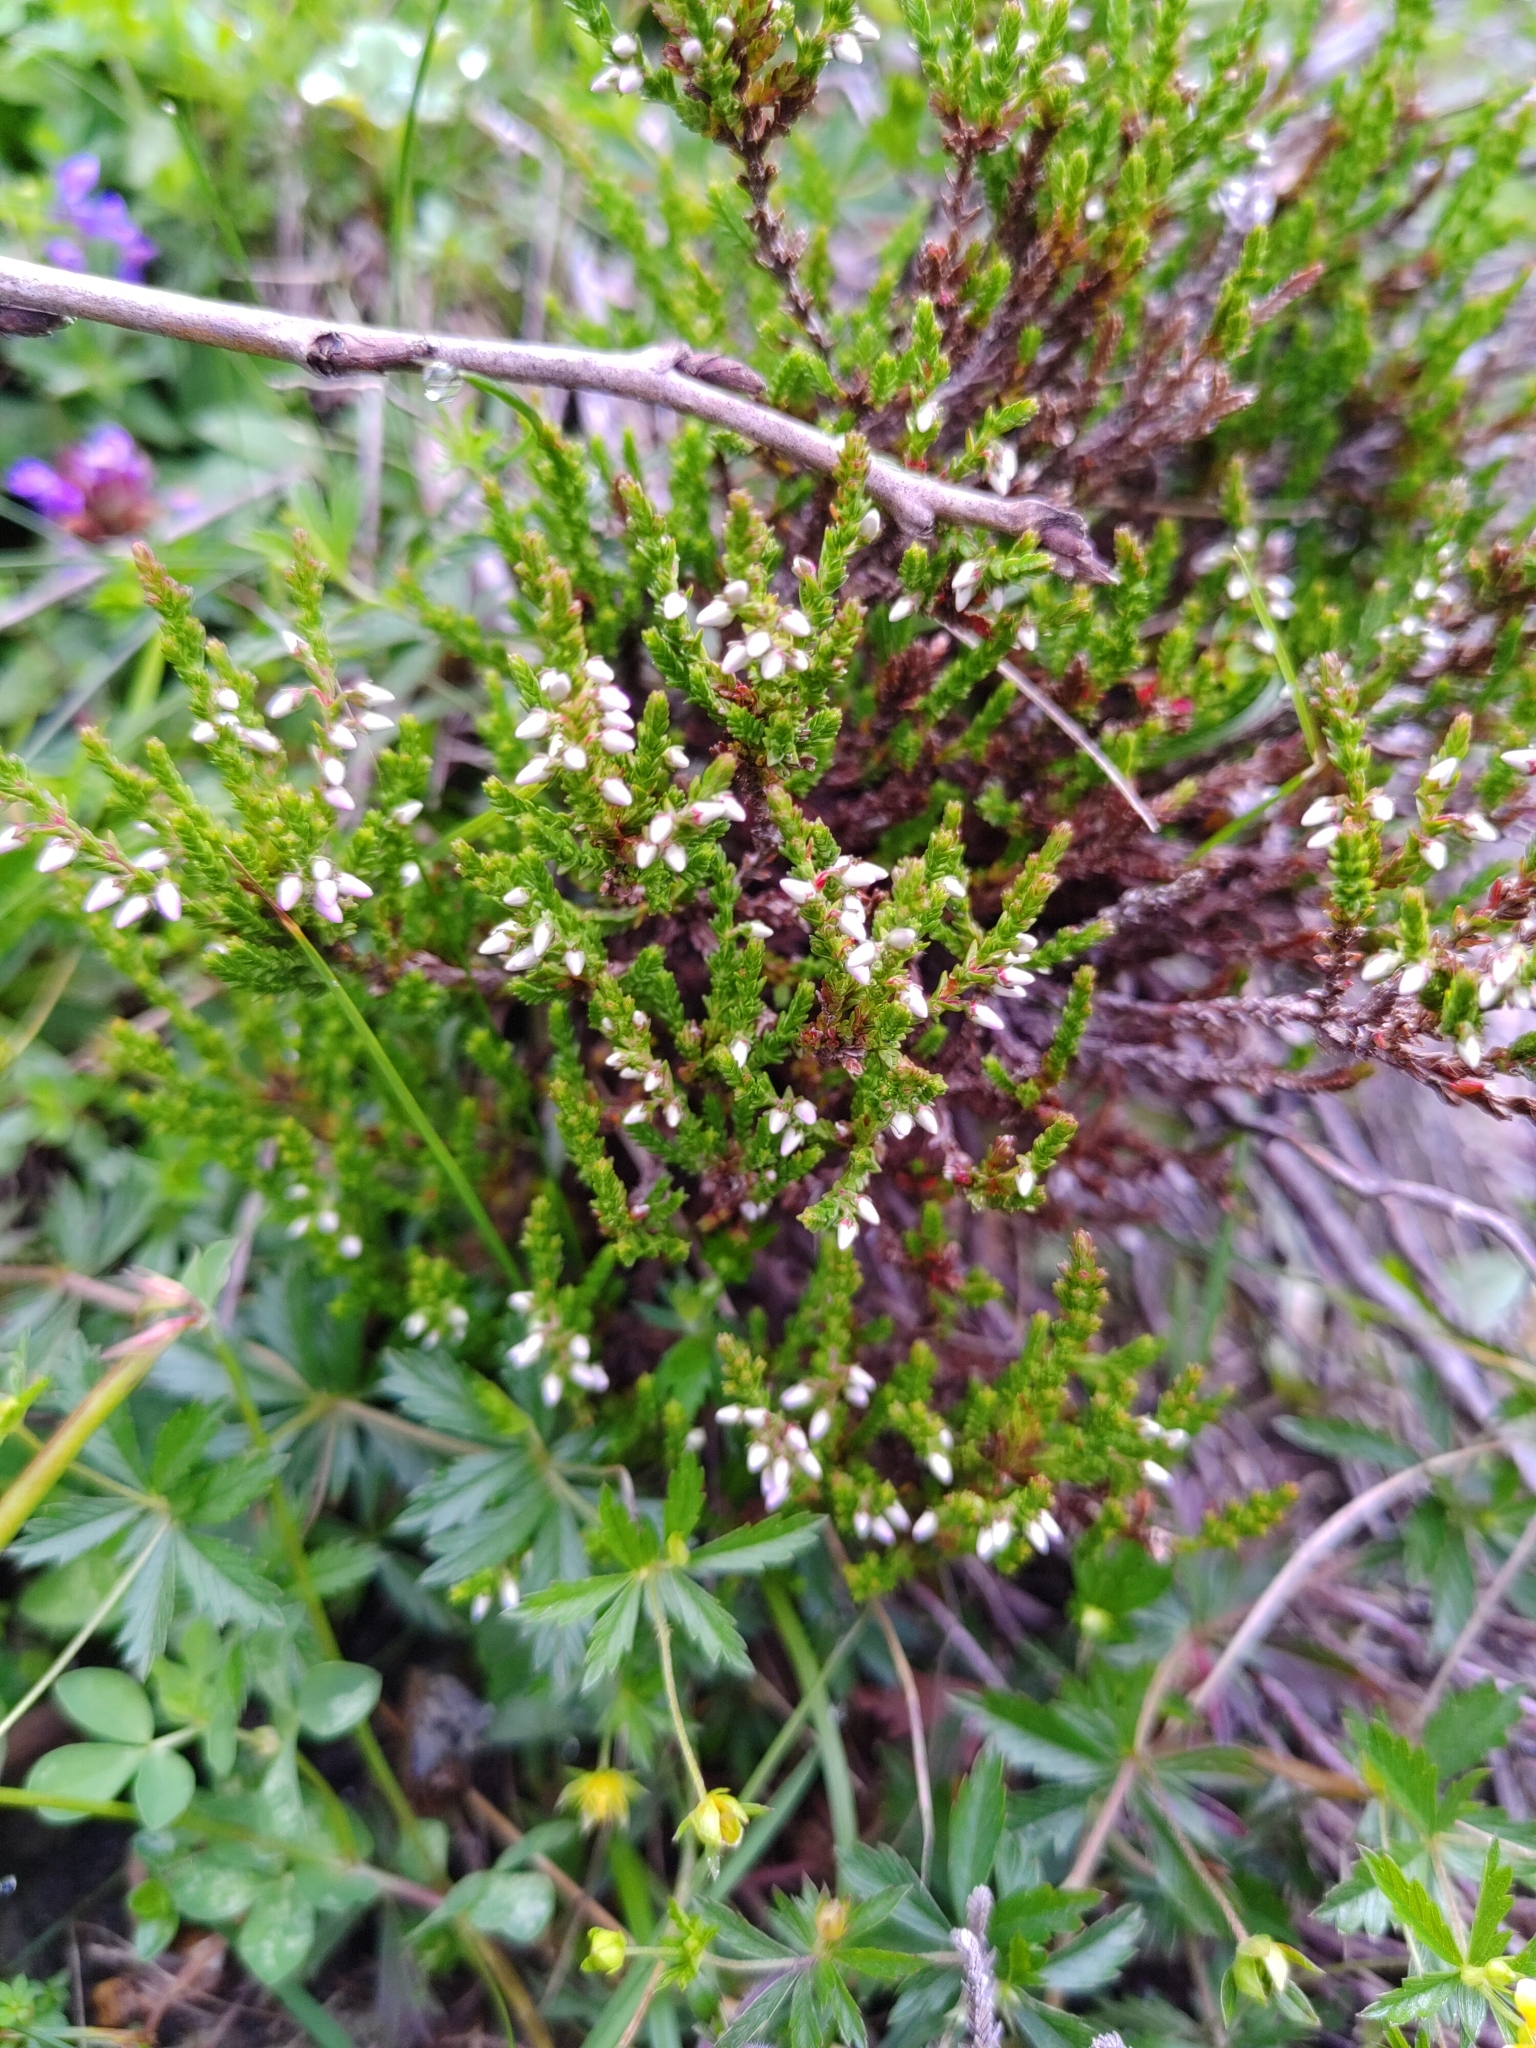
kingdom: Plantae
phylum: Tracheophyta
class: Magnoliopsida
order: Ericales
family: Ericaceae
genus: Calluna
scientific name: Calluna vulgaris
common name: Heather
